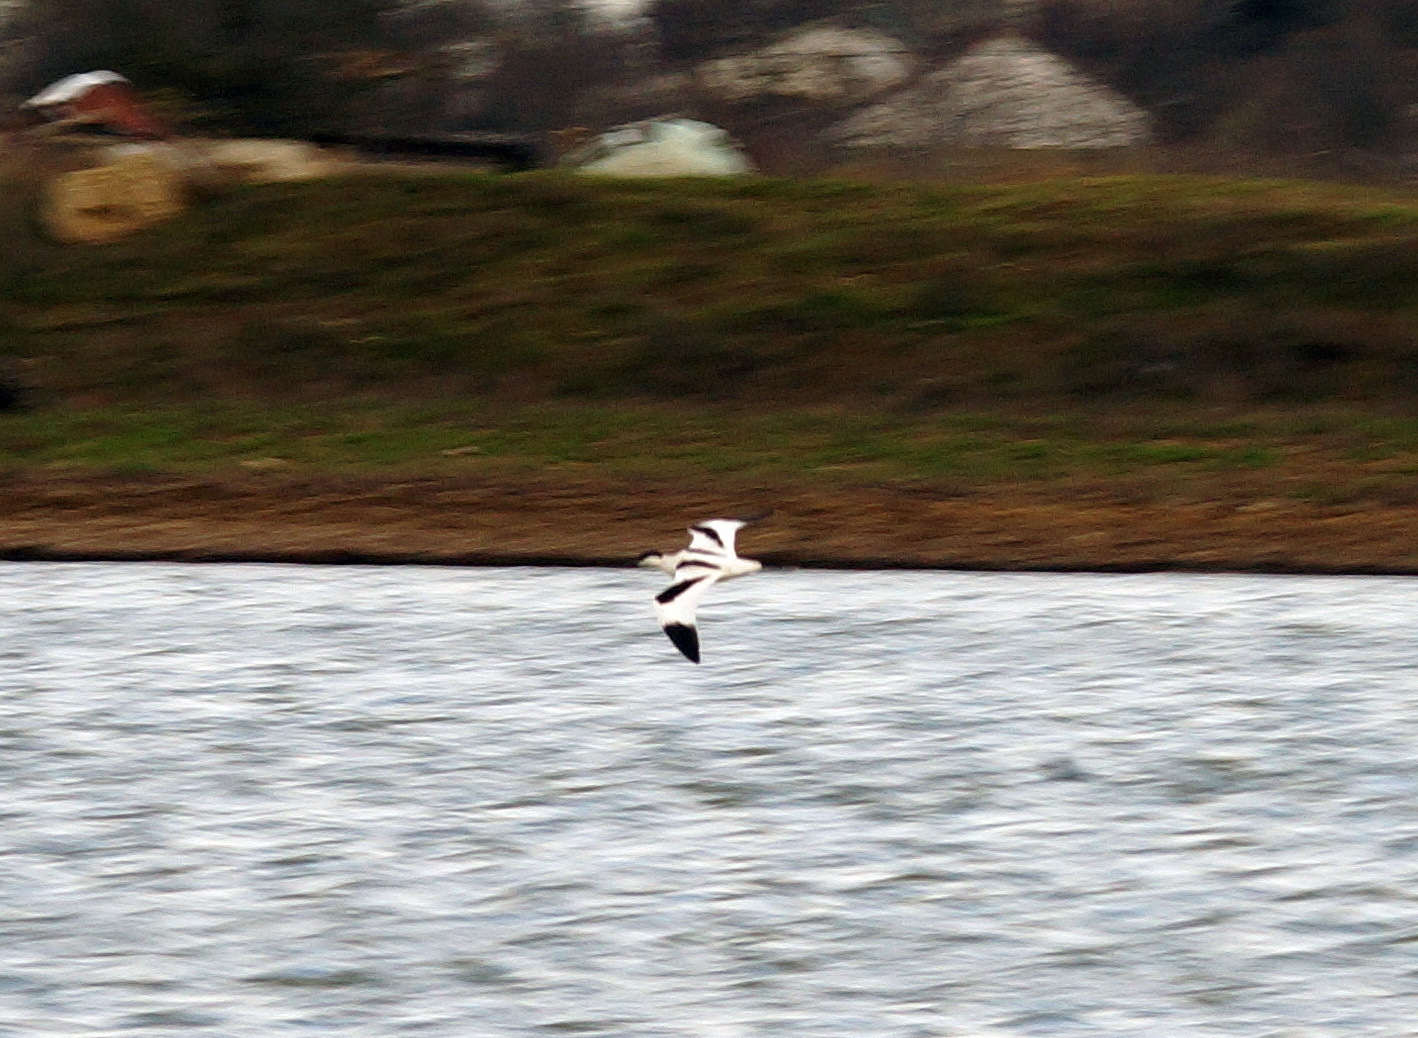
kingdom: Animalia
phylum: Chordata
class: Aves
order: Charadriiformes
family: Recurvirostridae
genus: Recurvirostra
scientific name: Recurvirostra avosetta
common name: Pied avocet
